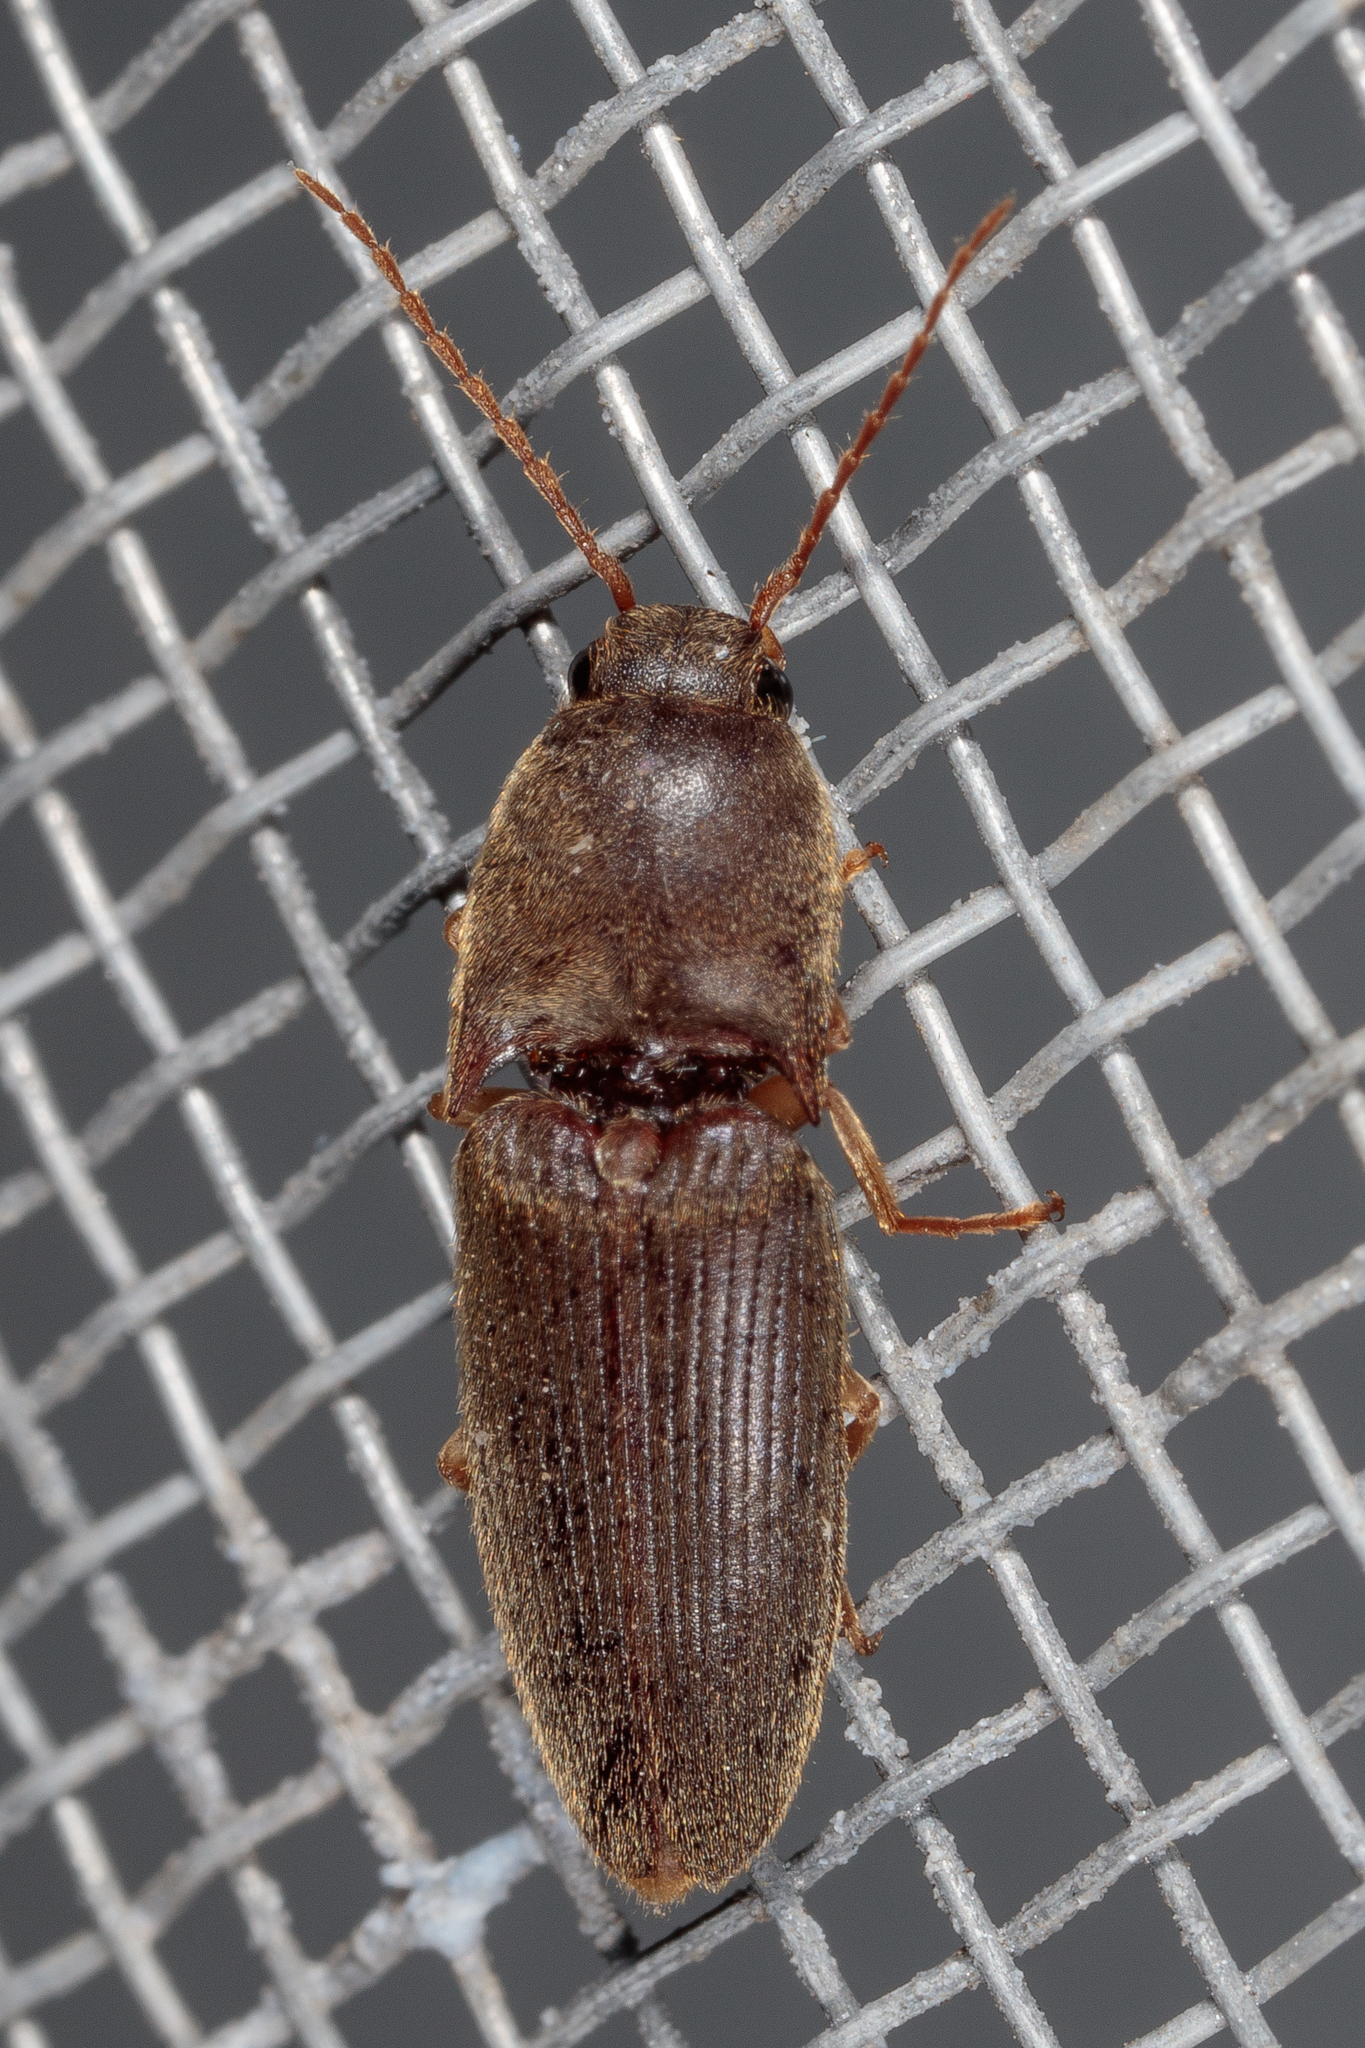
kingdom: Animalia
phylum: Arthropoda
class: Insecta
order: Coleoptera
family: Elateridae
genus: Conoderus
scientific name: Conoderus exsul
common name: Click beetle
